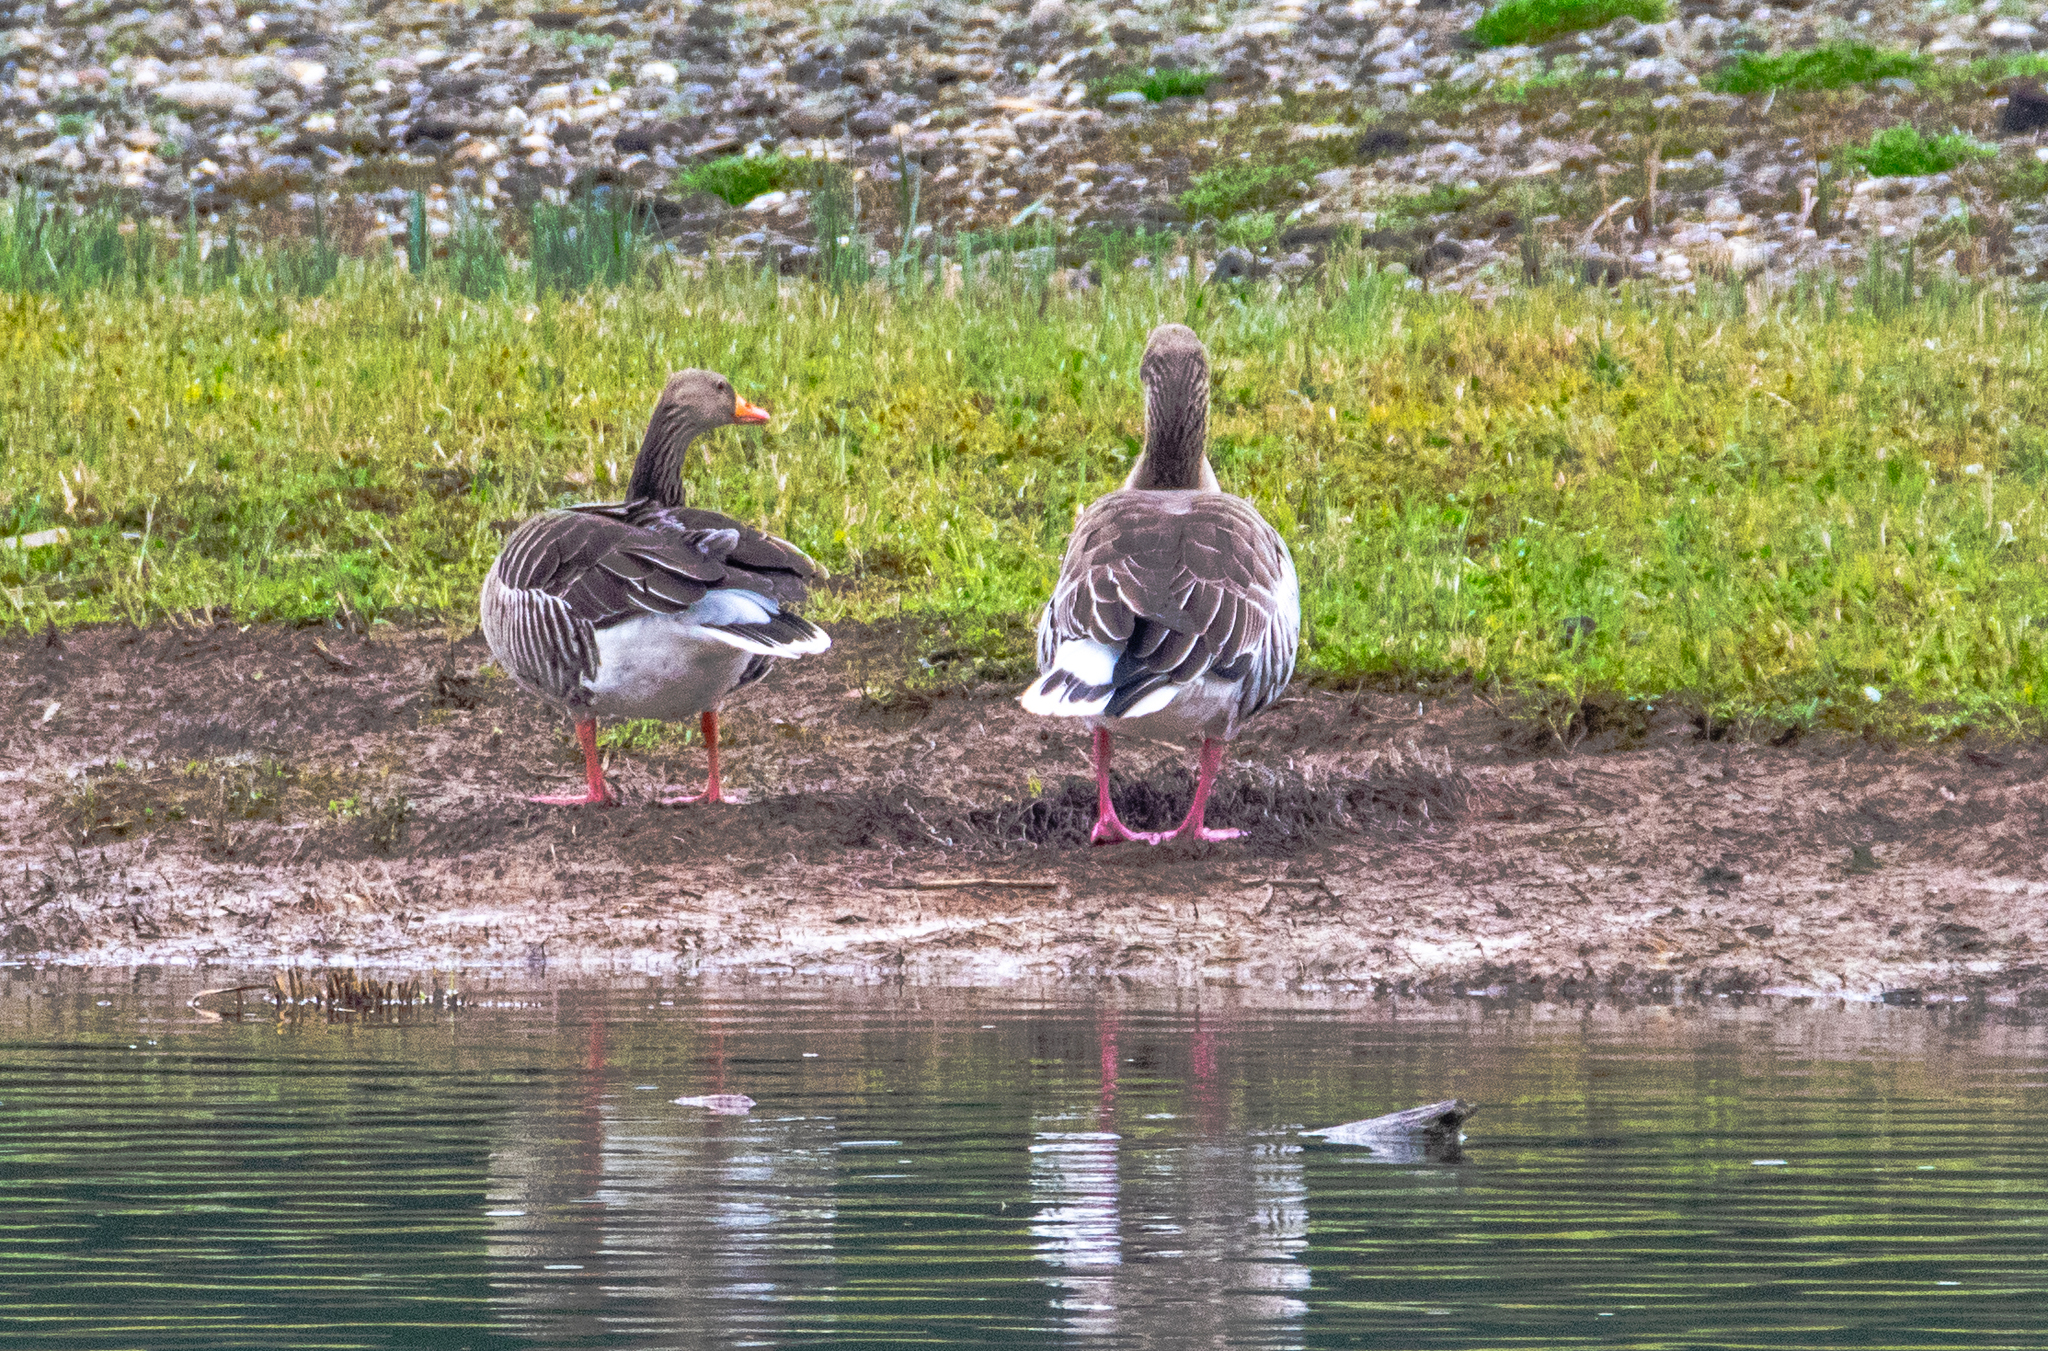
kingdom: Animalia
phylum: Chordata
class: Aves
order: Anseriformes
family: Anatidae
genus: Anser
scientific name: Anser anser
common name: Greylag goose
